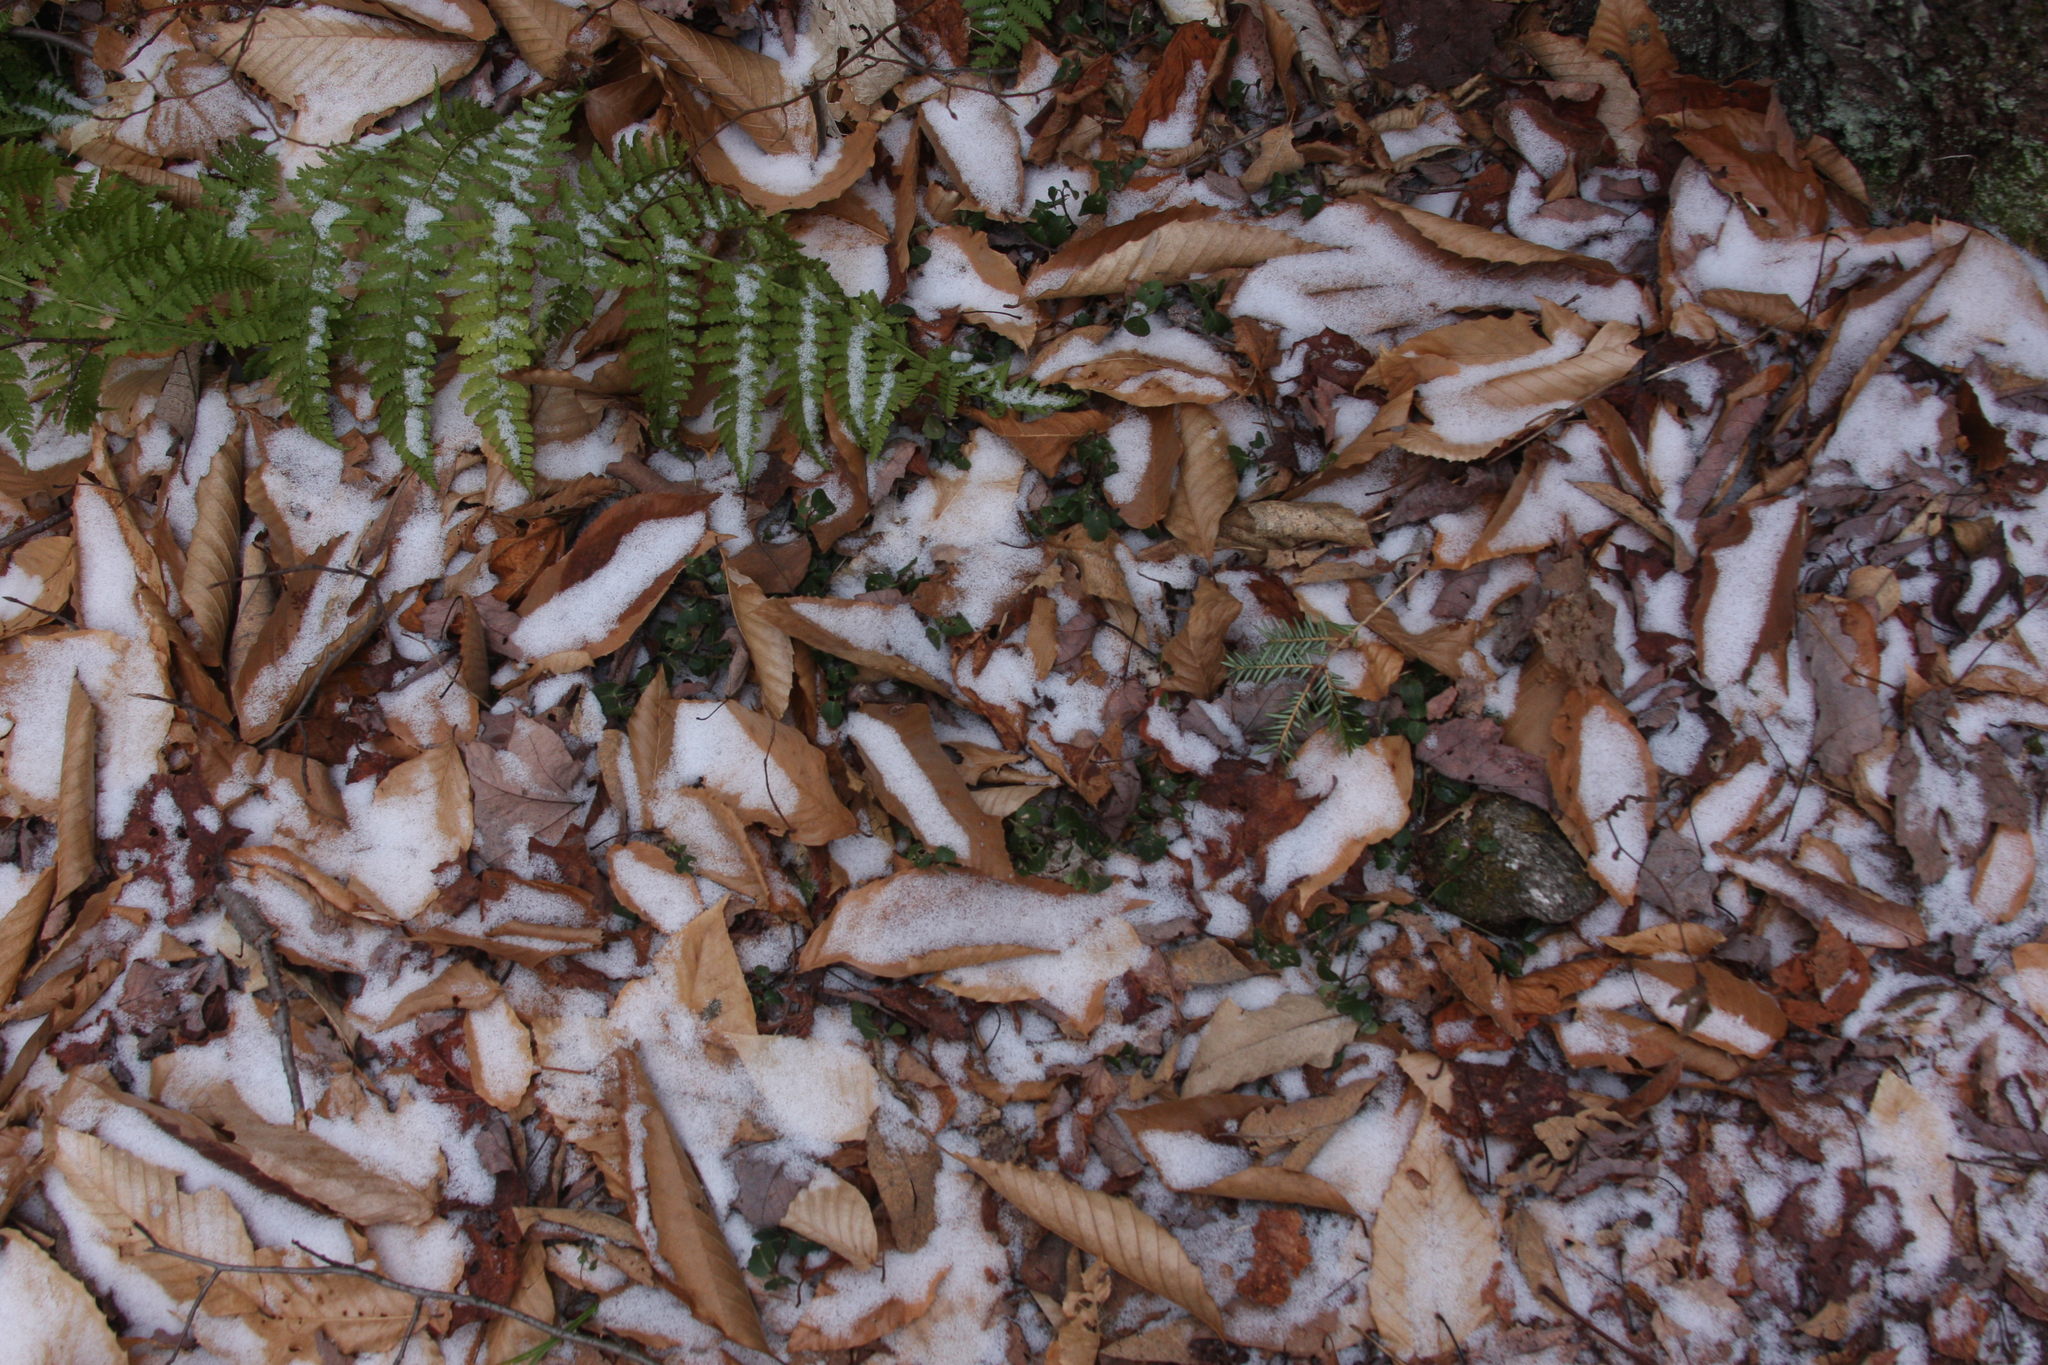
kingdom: Plantae
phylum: Tracheophyta
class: Magnoliopsida
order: Gentianales
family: Rubiaceae
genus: Mitchella
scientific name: Mitchella repens
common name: Partridge-berry
